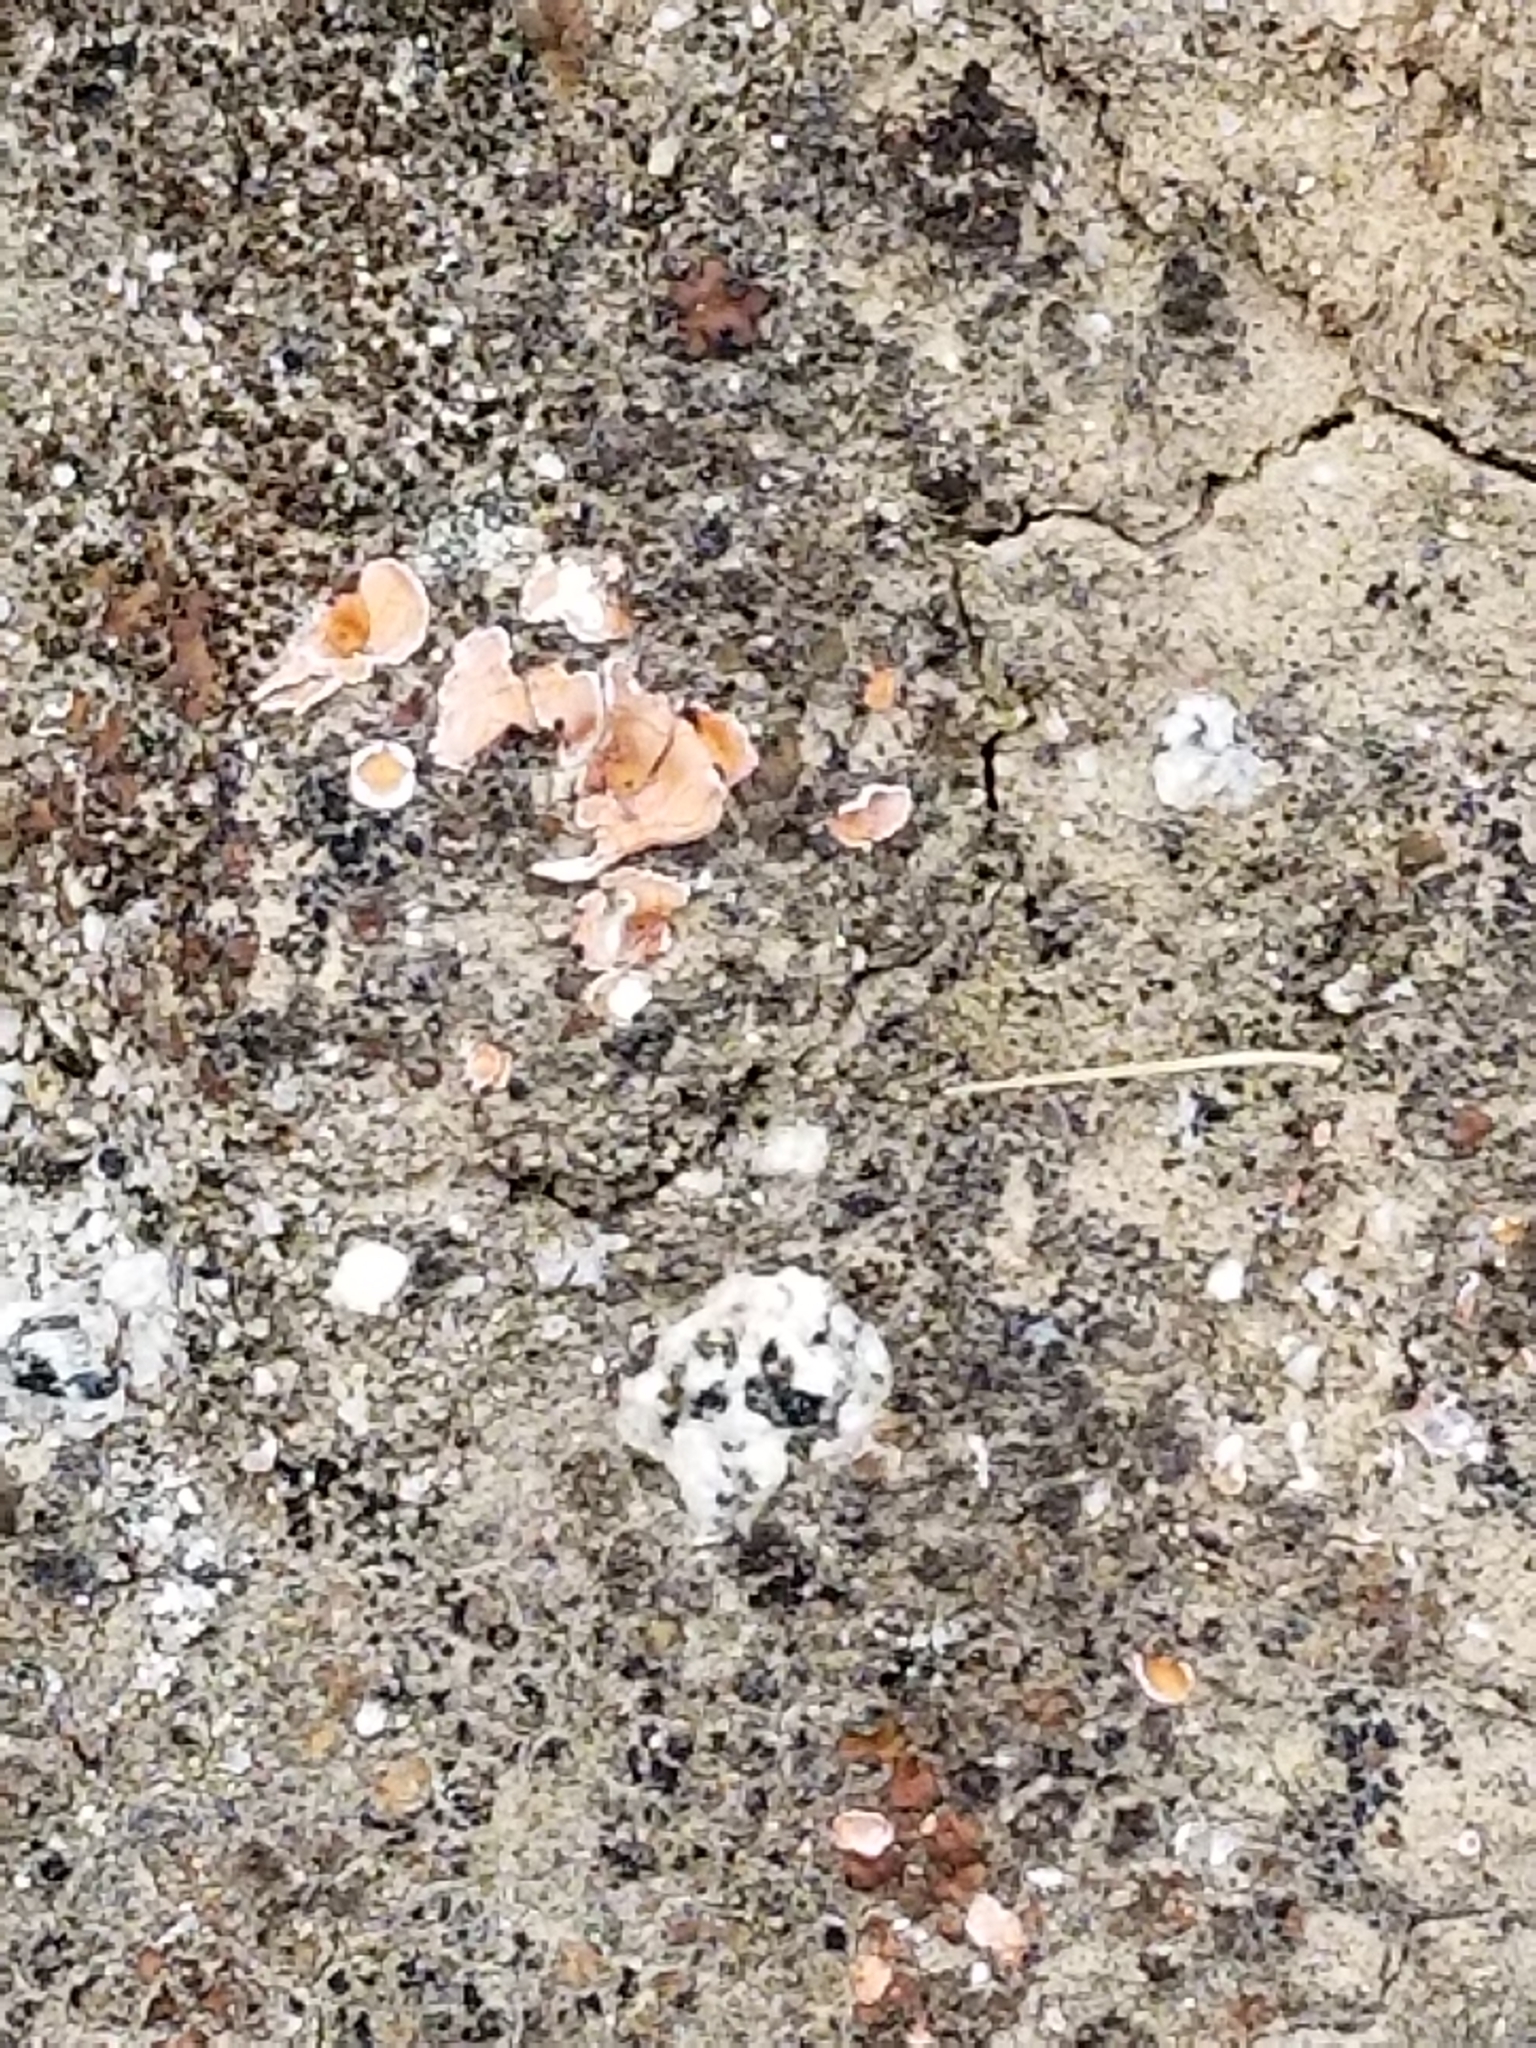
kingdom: Fungi
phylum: Ascomycota
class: Lecanoromycetes
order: Lecanorales
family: Psoraceae
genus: Psora
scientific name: Psora decipiens
